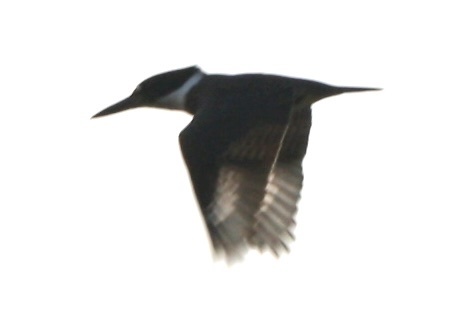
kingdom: Animalia
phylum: Chordata
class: Aves
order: Coraciiformes
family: Alcedinidae
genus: Megaceryle
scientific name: Megaceryle alcyon
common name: Belted kingfisher
